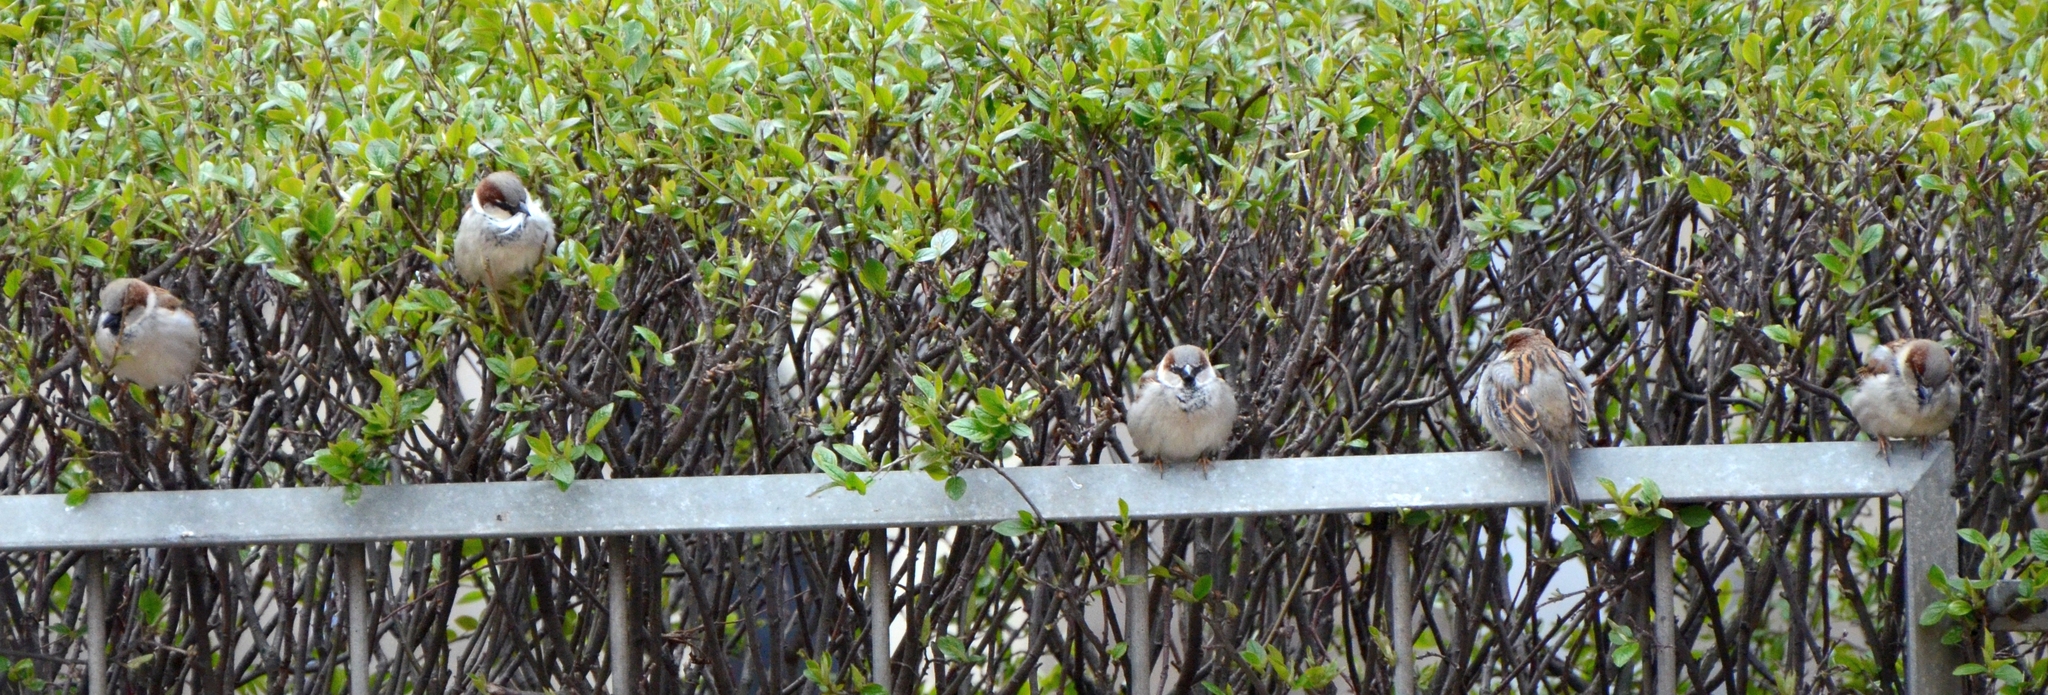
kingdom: Animalia
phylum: Chordata
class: Aves
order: Passeriformes
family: Passeridae
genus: Passer
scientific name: Passer domesticus
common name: House sparrow
